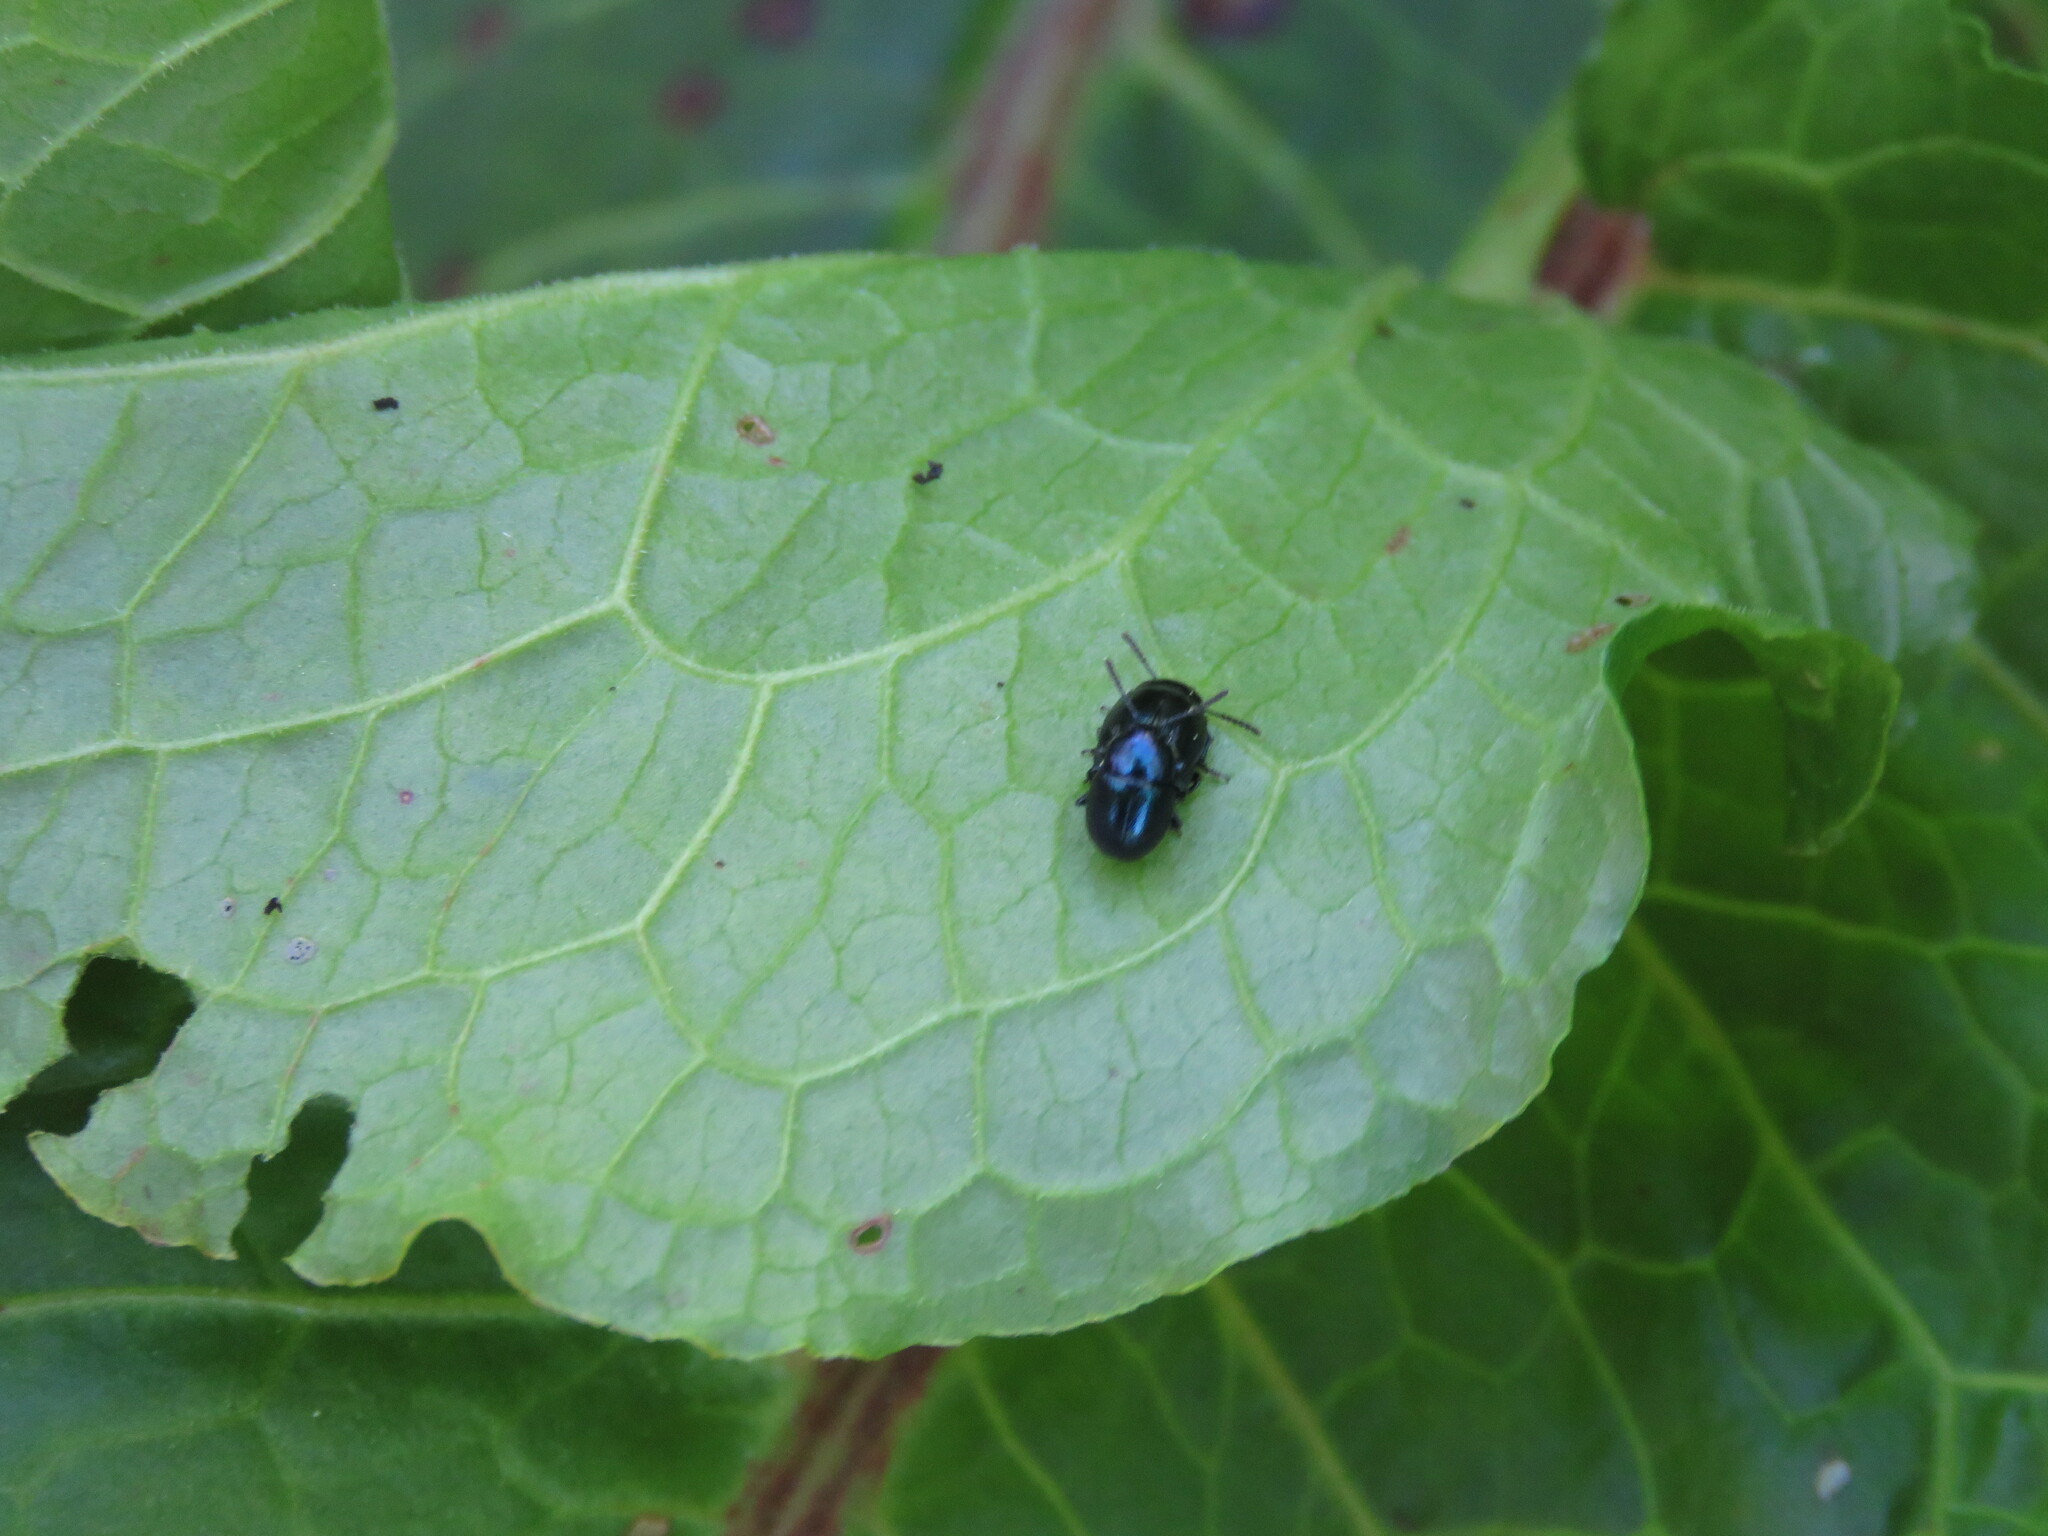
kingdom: Animalia
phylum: Arthropoda
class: Insecta
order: Coleoptera
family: Chrysomelidae
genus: Gastrophysa
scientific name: Gastrophysa janthina
